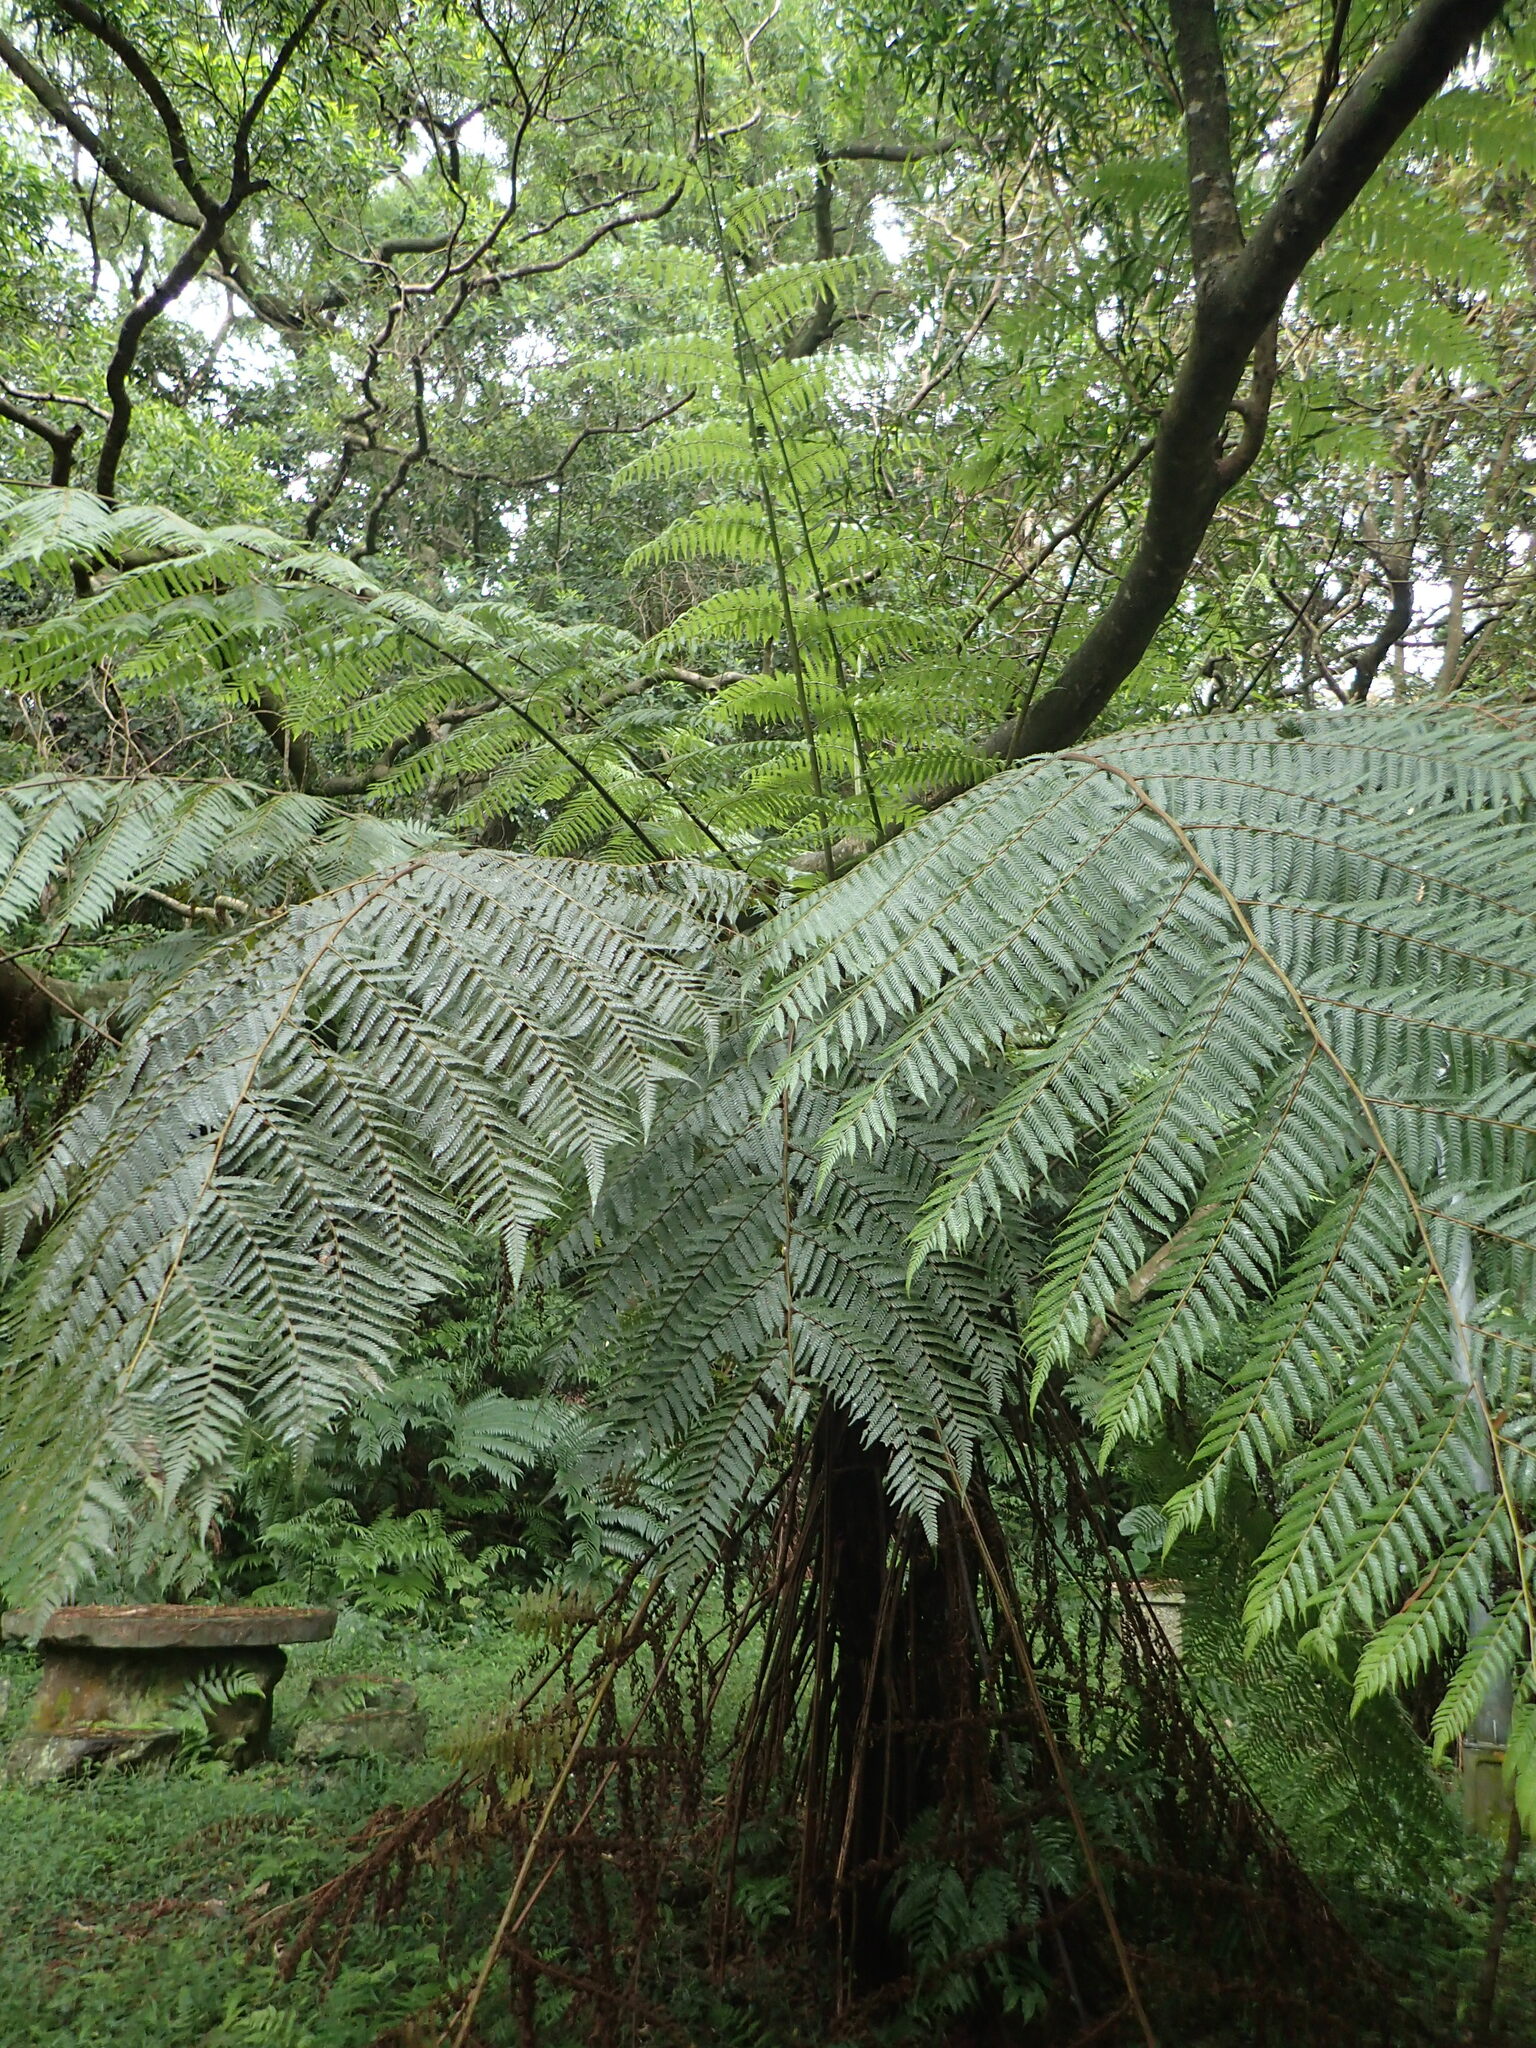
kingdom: Plantae
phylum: Tracheophyta
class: Polypodiopsida
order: Cyatheales
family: Cyatheaceae
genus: Alsophila
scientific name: Alsophila spinulosa
